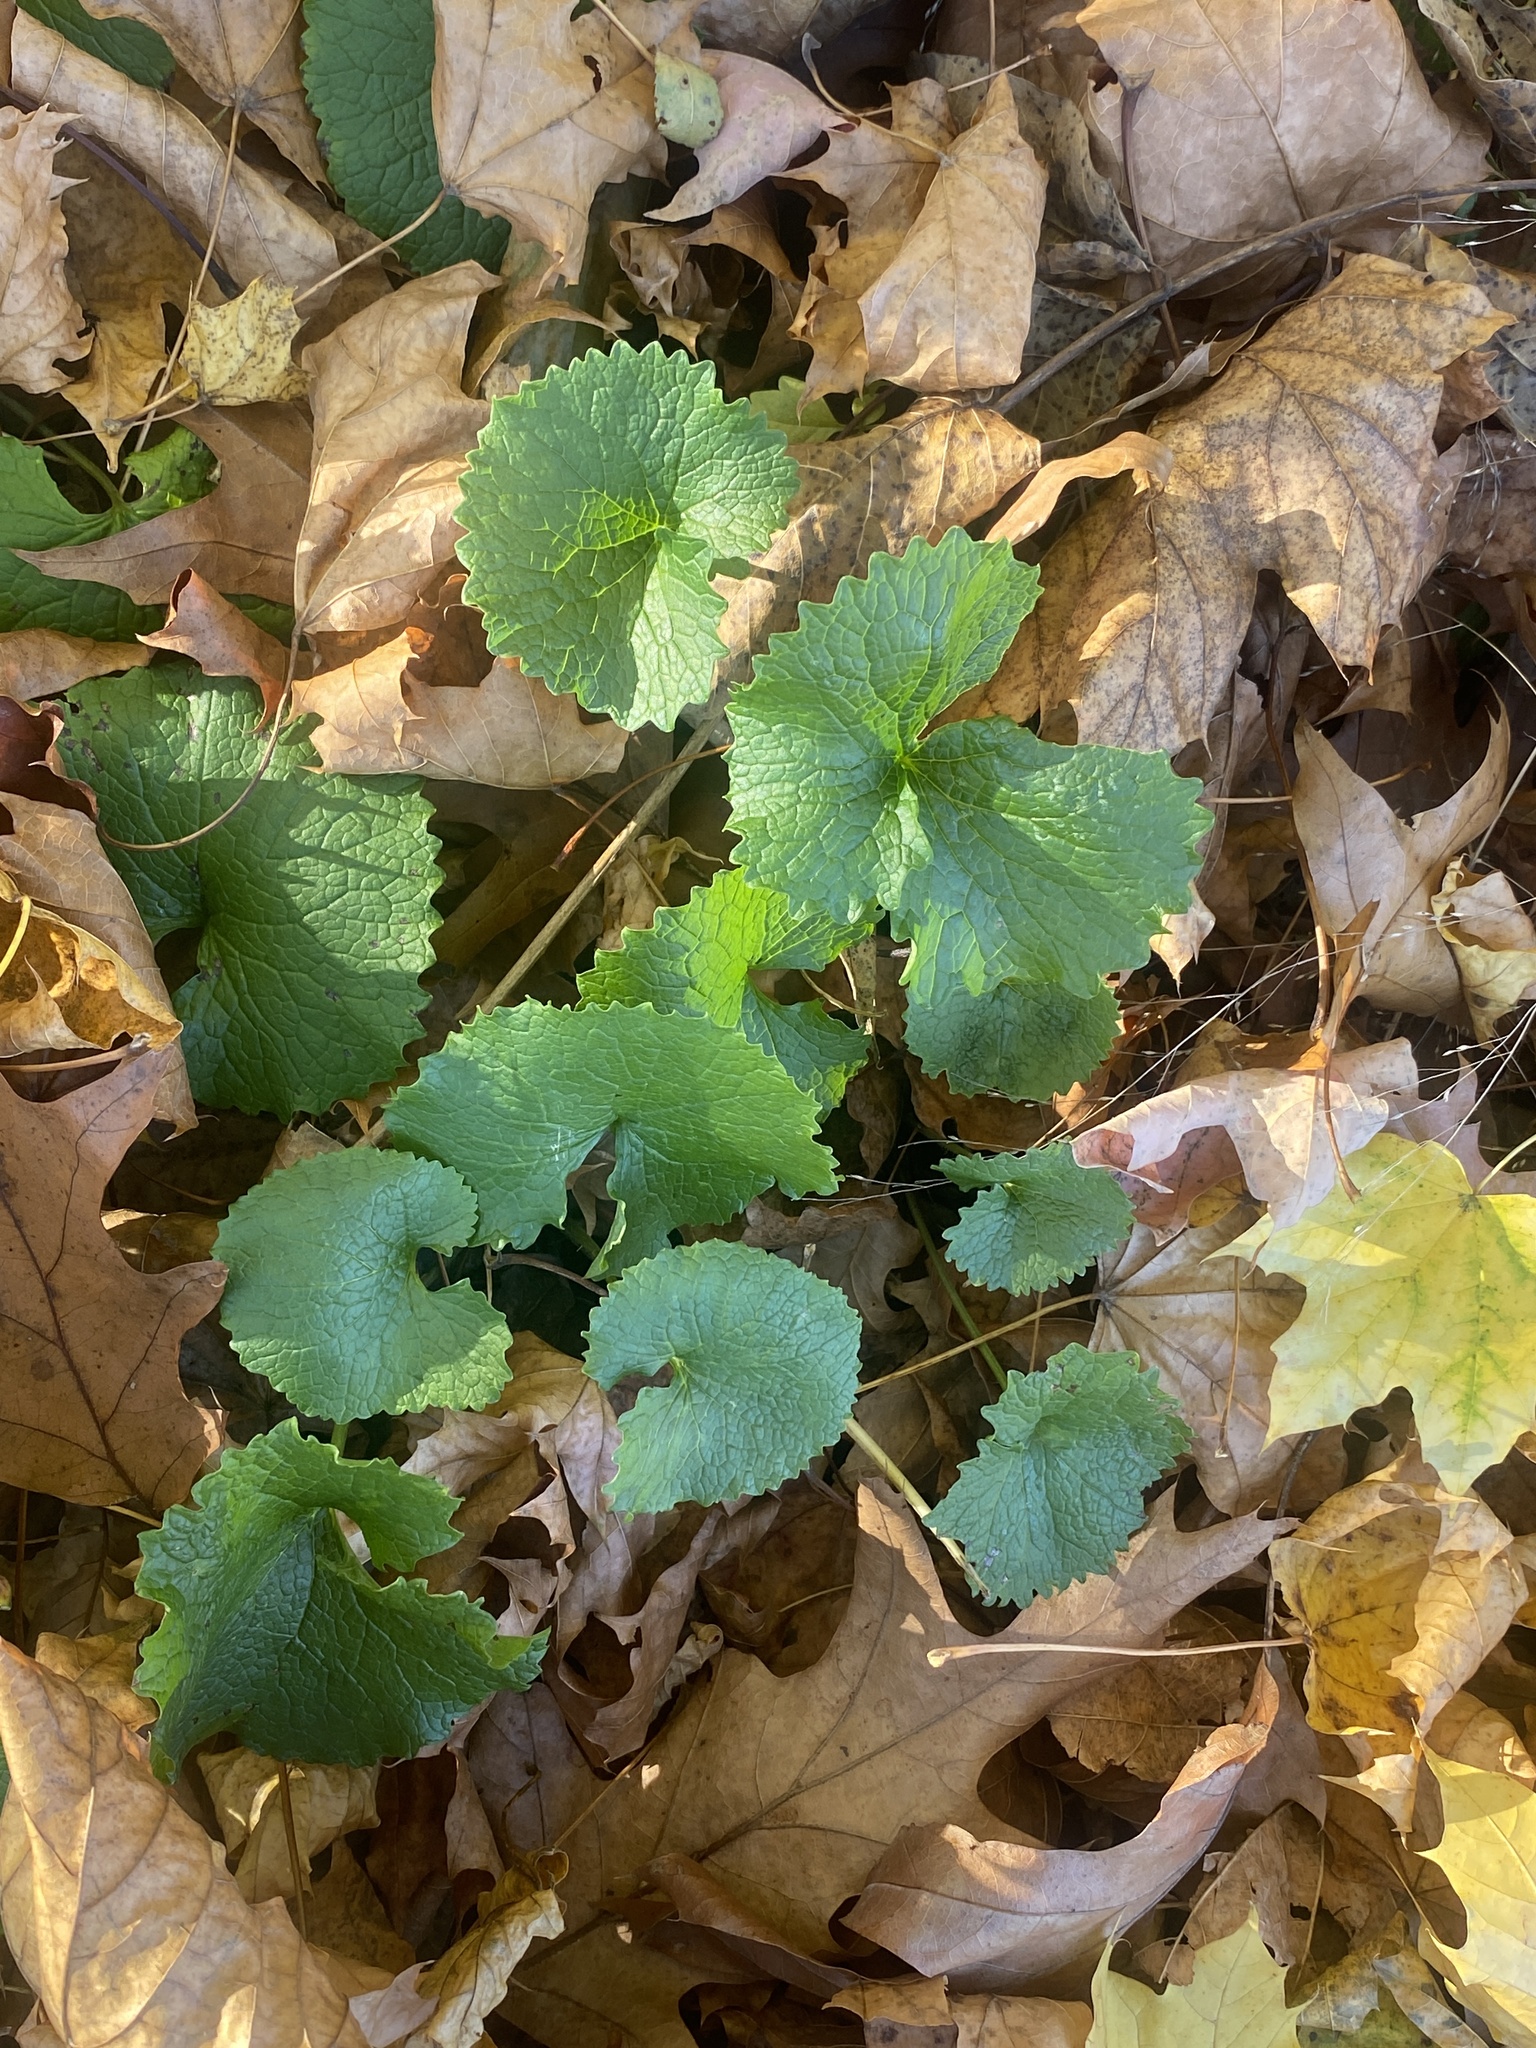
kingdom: Plantae
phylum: Tracheophyta
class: Magnoliopsida
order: Brassicales
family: Brassicaceae
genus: Alliaria
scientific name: Alliaria petiolata
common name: Garlic mustard
